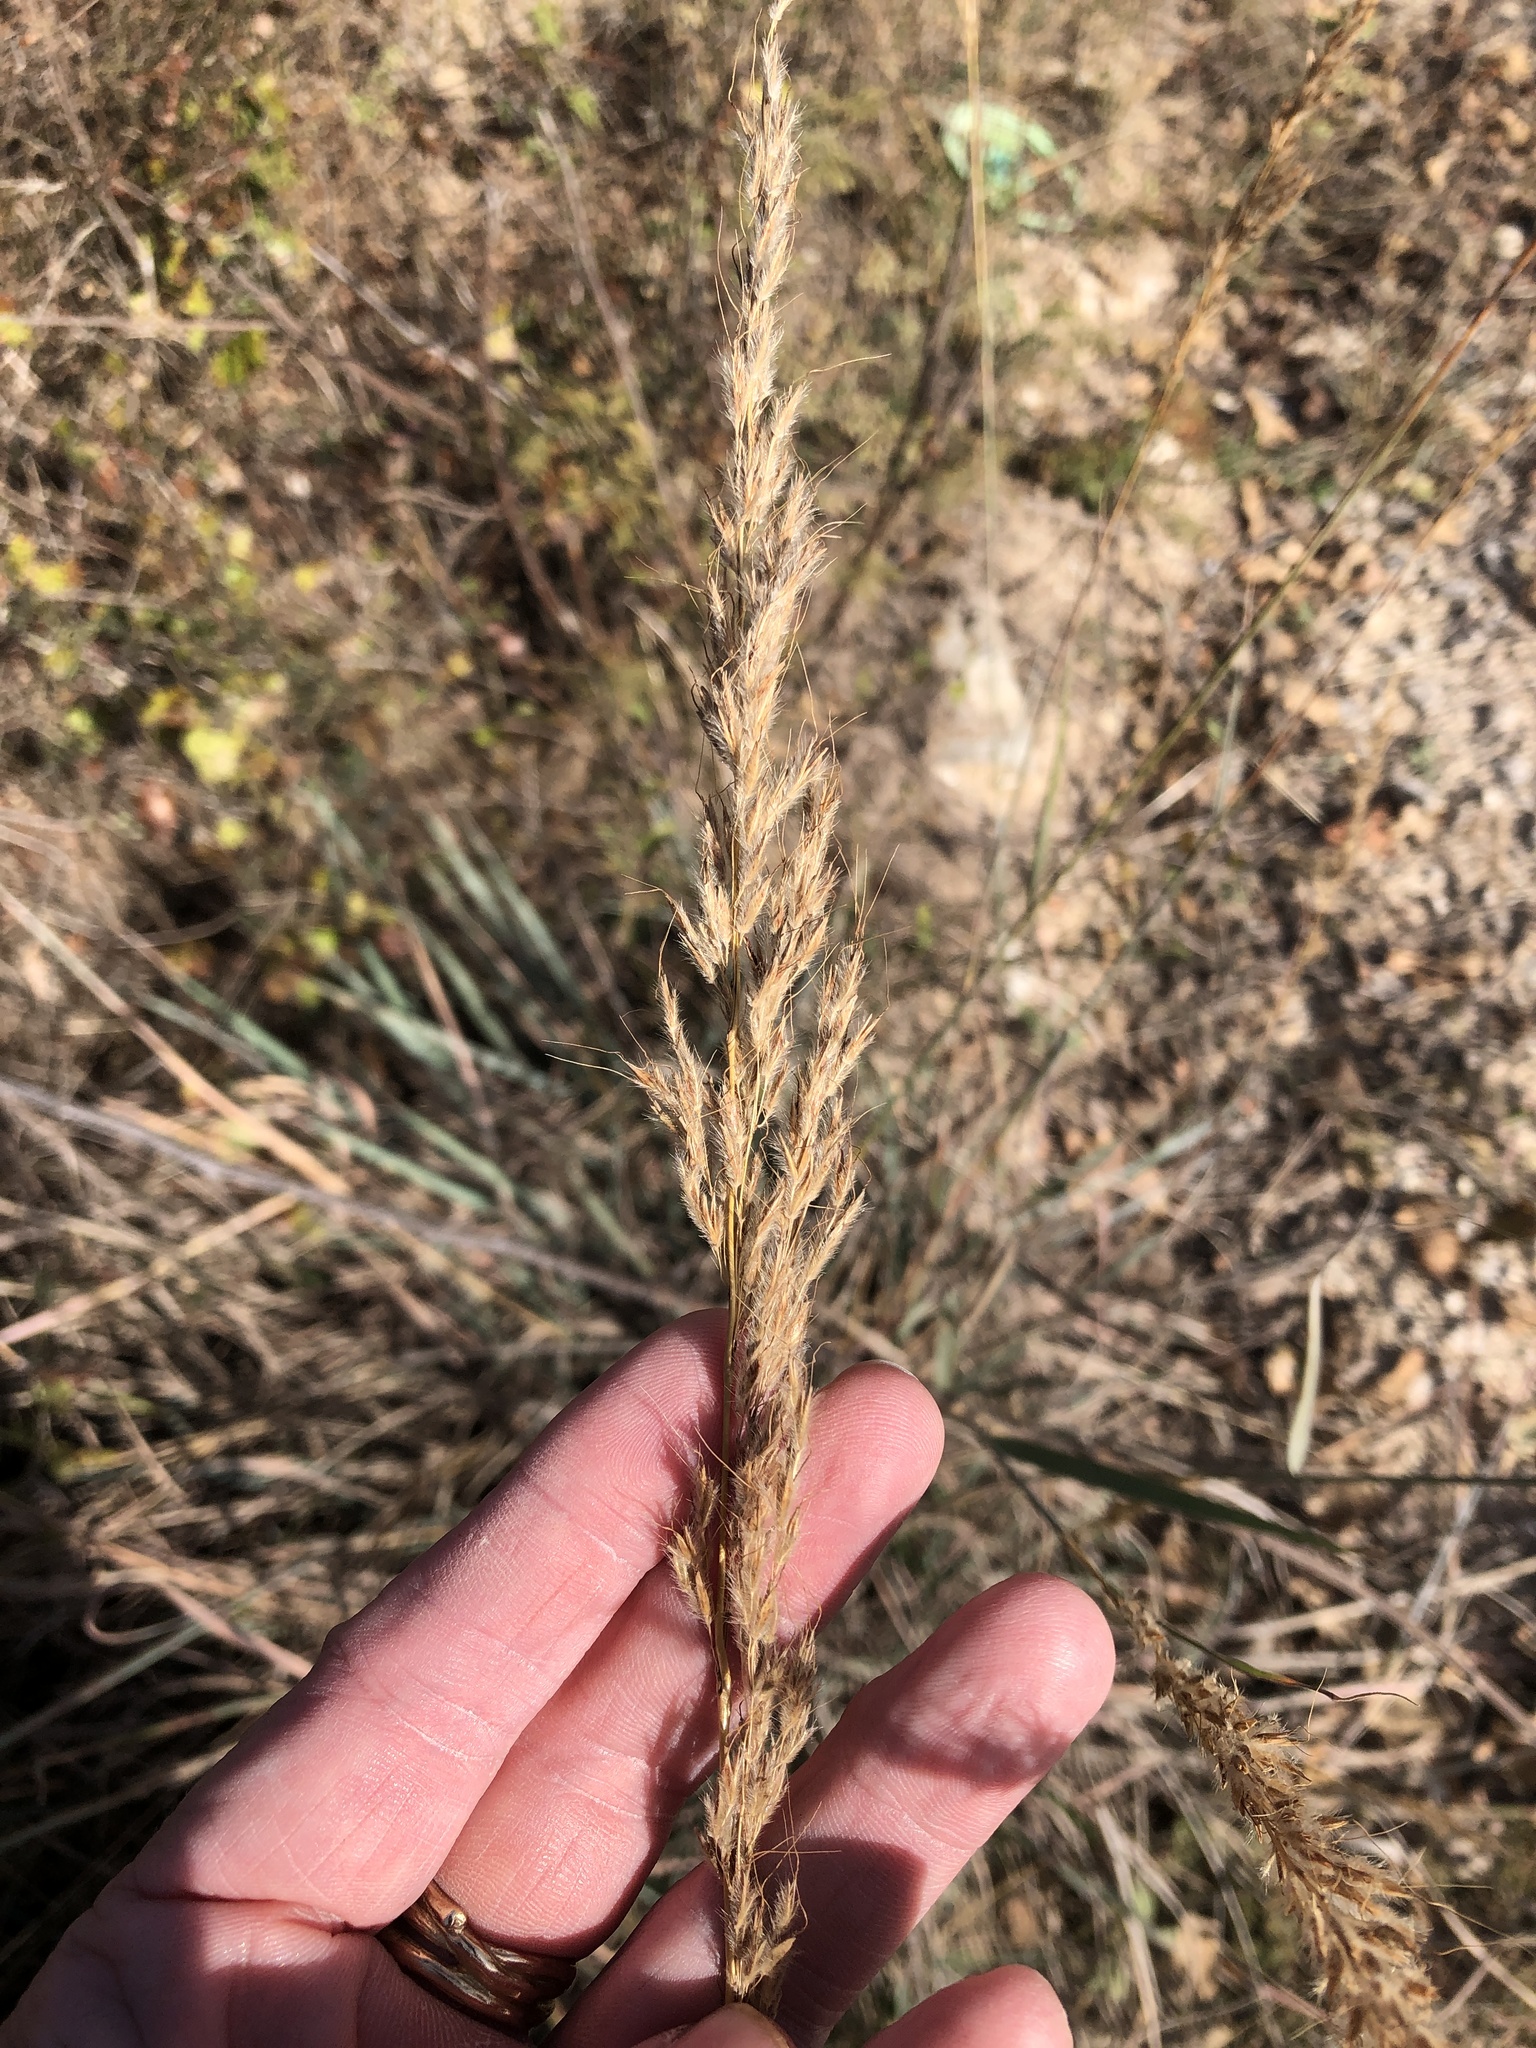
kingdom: Plantae
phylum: Tracheophyta
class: Liliopsida
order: Poales
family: Poaceae
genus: Sorghastrum
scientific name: Sorghastrum nutans
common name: Indian grass
